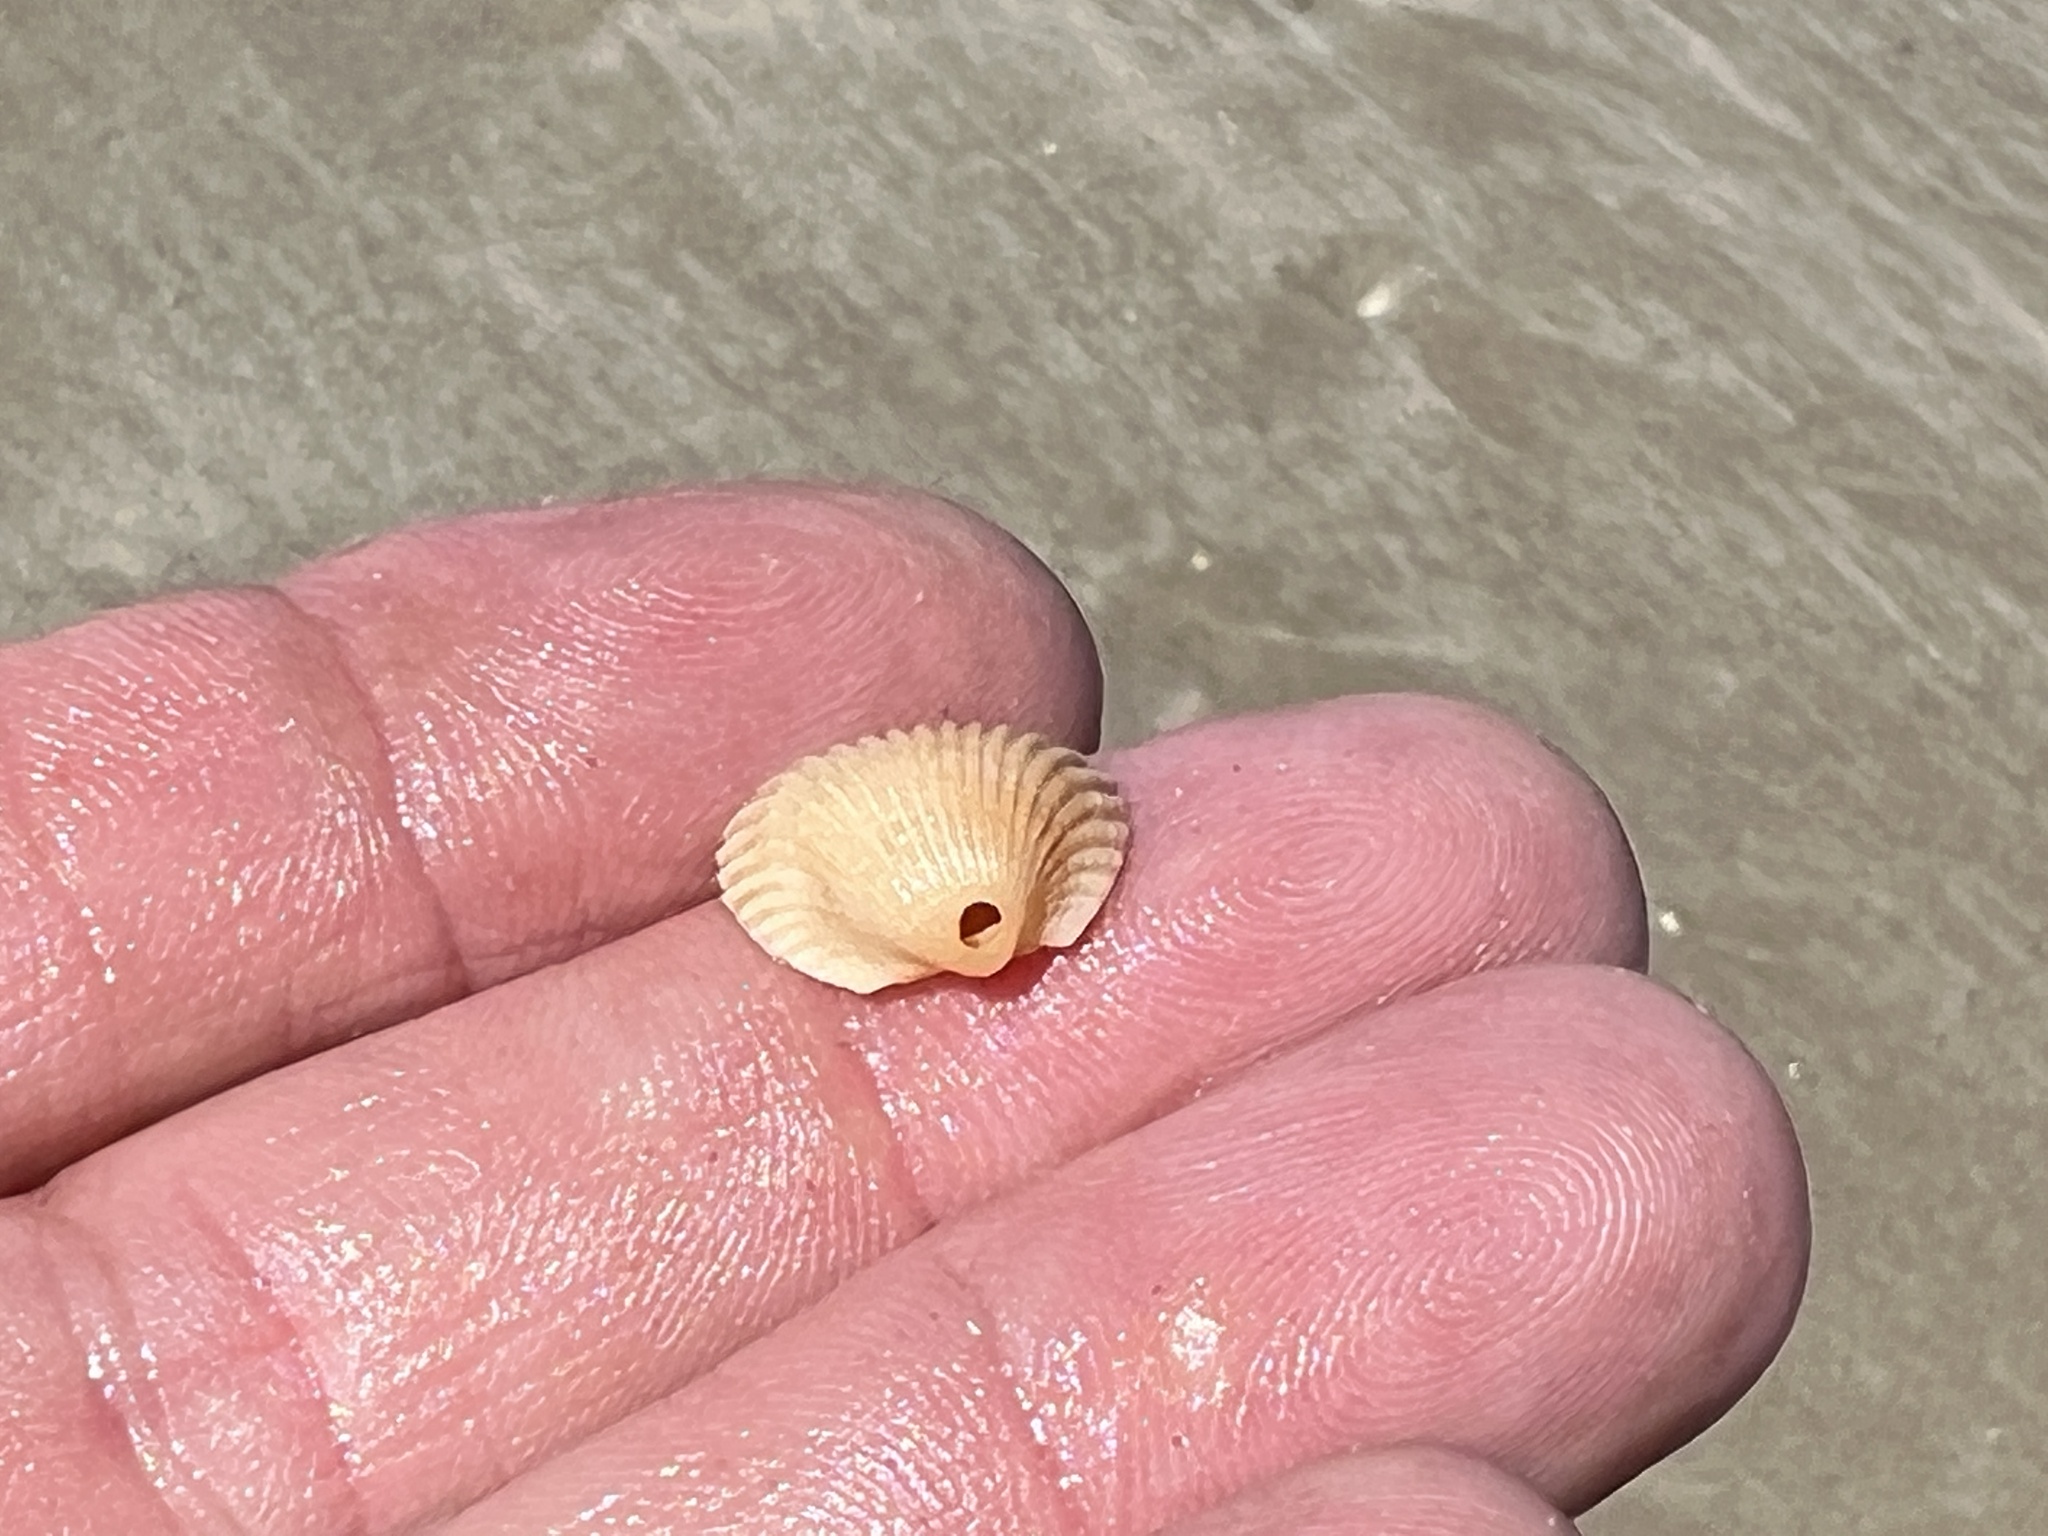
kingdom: Animalia
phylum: Mollusca
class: Bivalvia
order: Arcida
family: Arcidae
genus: Anadara
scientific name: Anadara brasiliana
